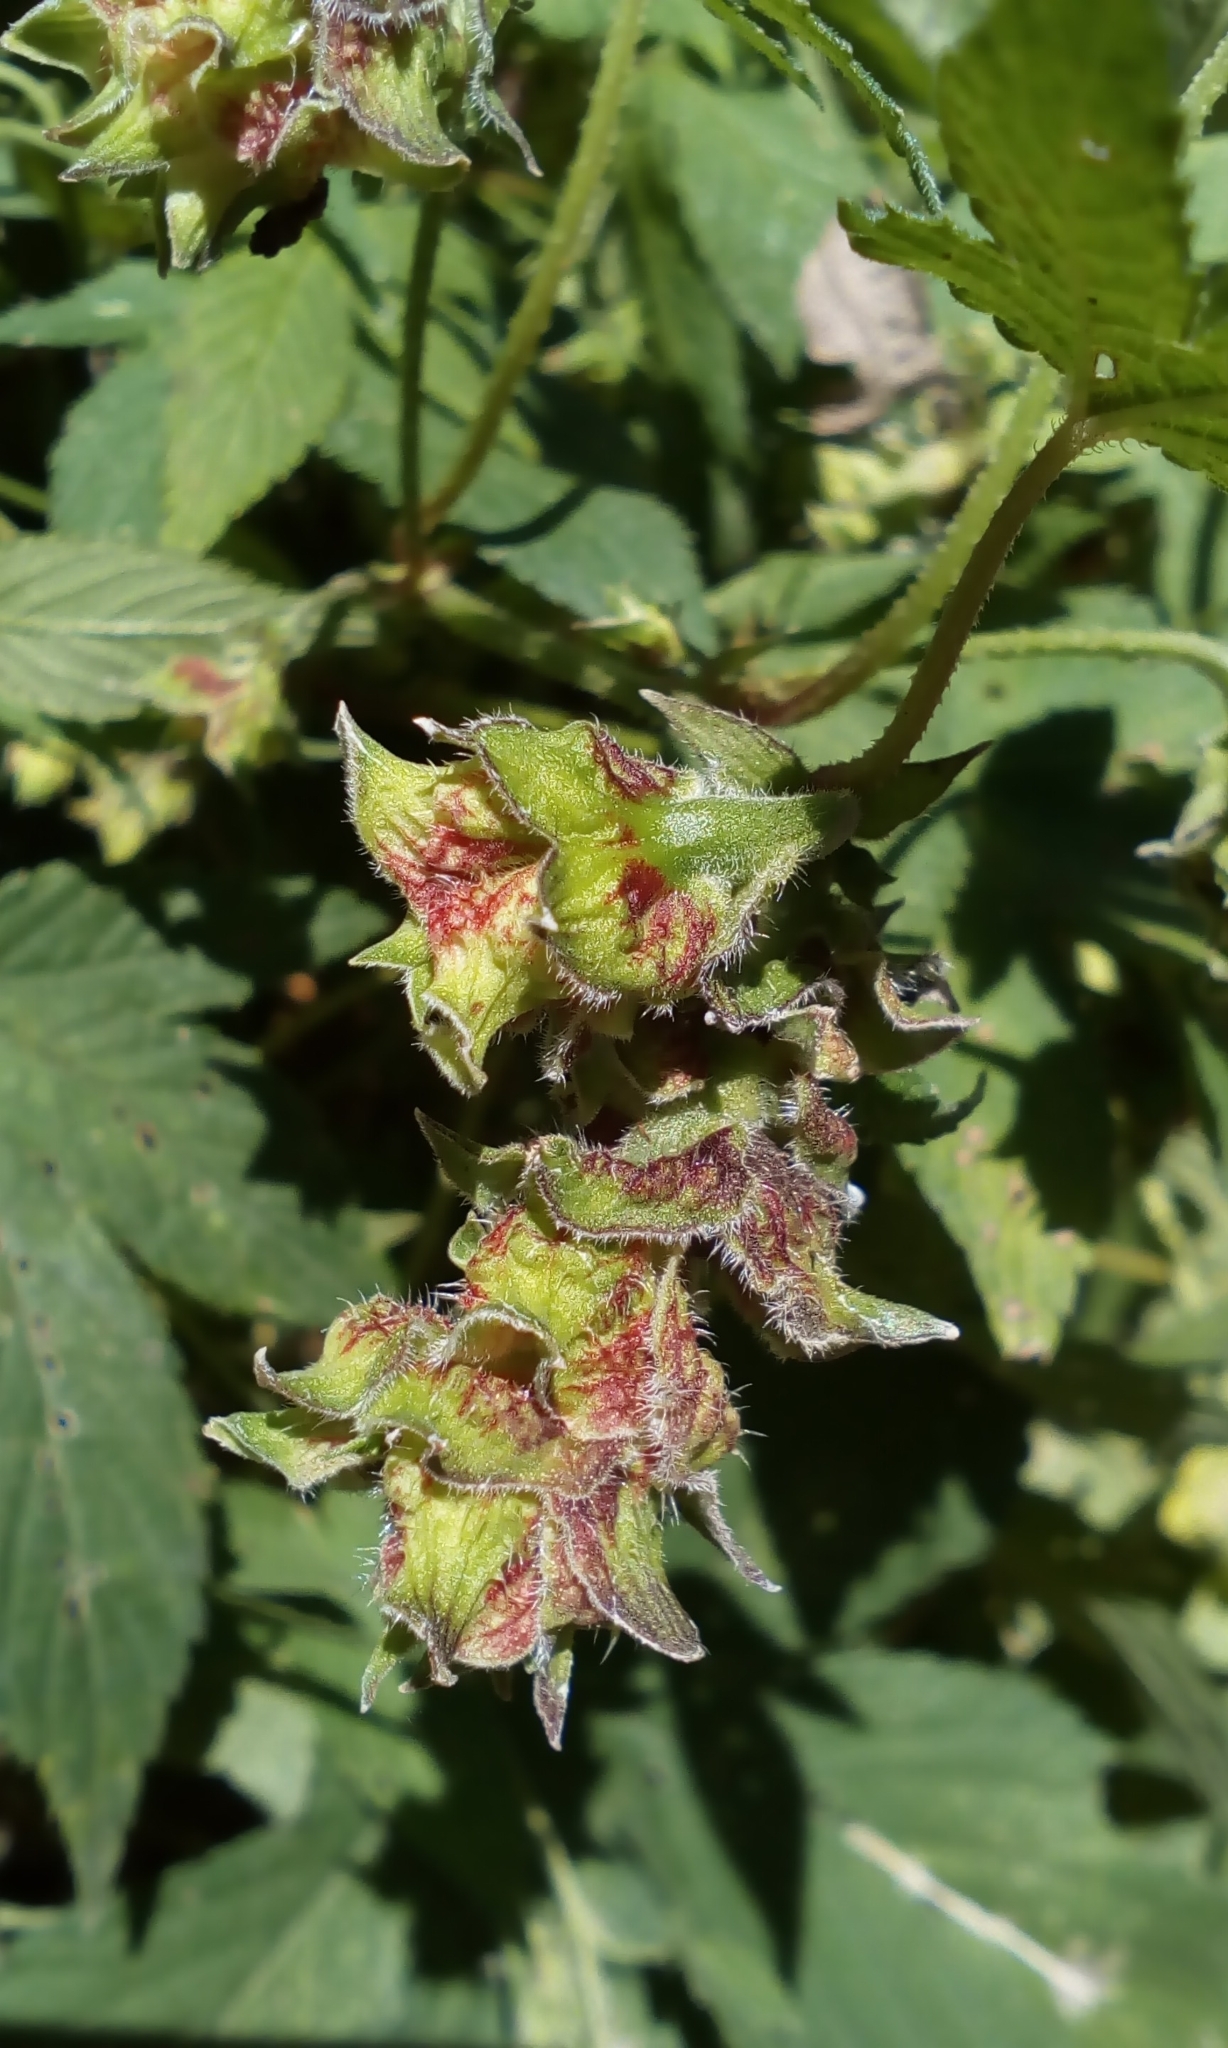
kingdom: Plantae
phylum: Tracheophyta
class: Magnoliopsida
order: Rosales
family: Cannabaceae
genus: Humulus
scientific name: Humulus scandens
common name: Japanese hop
